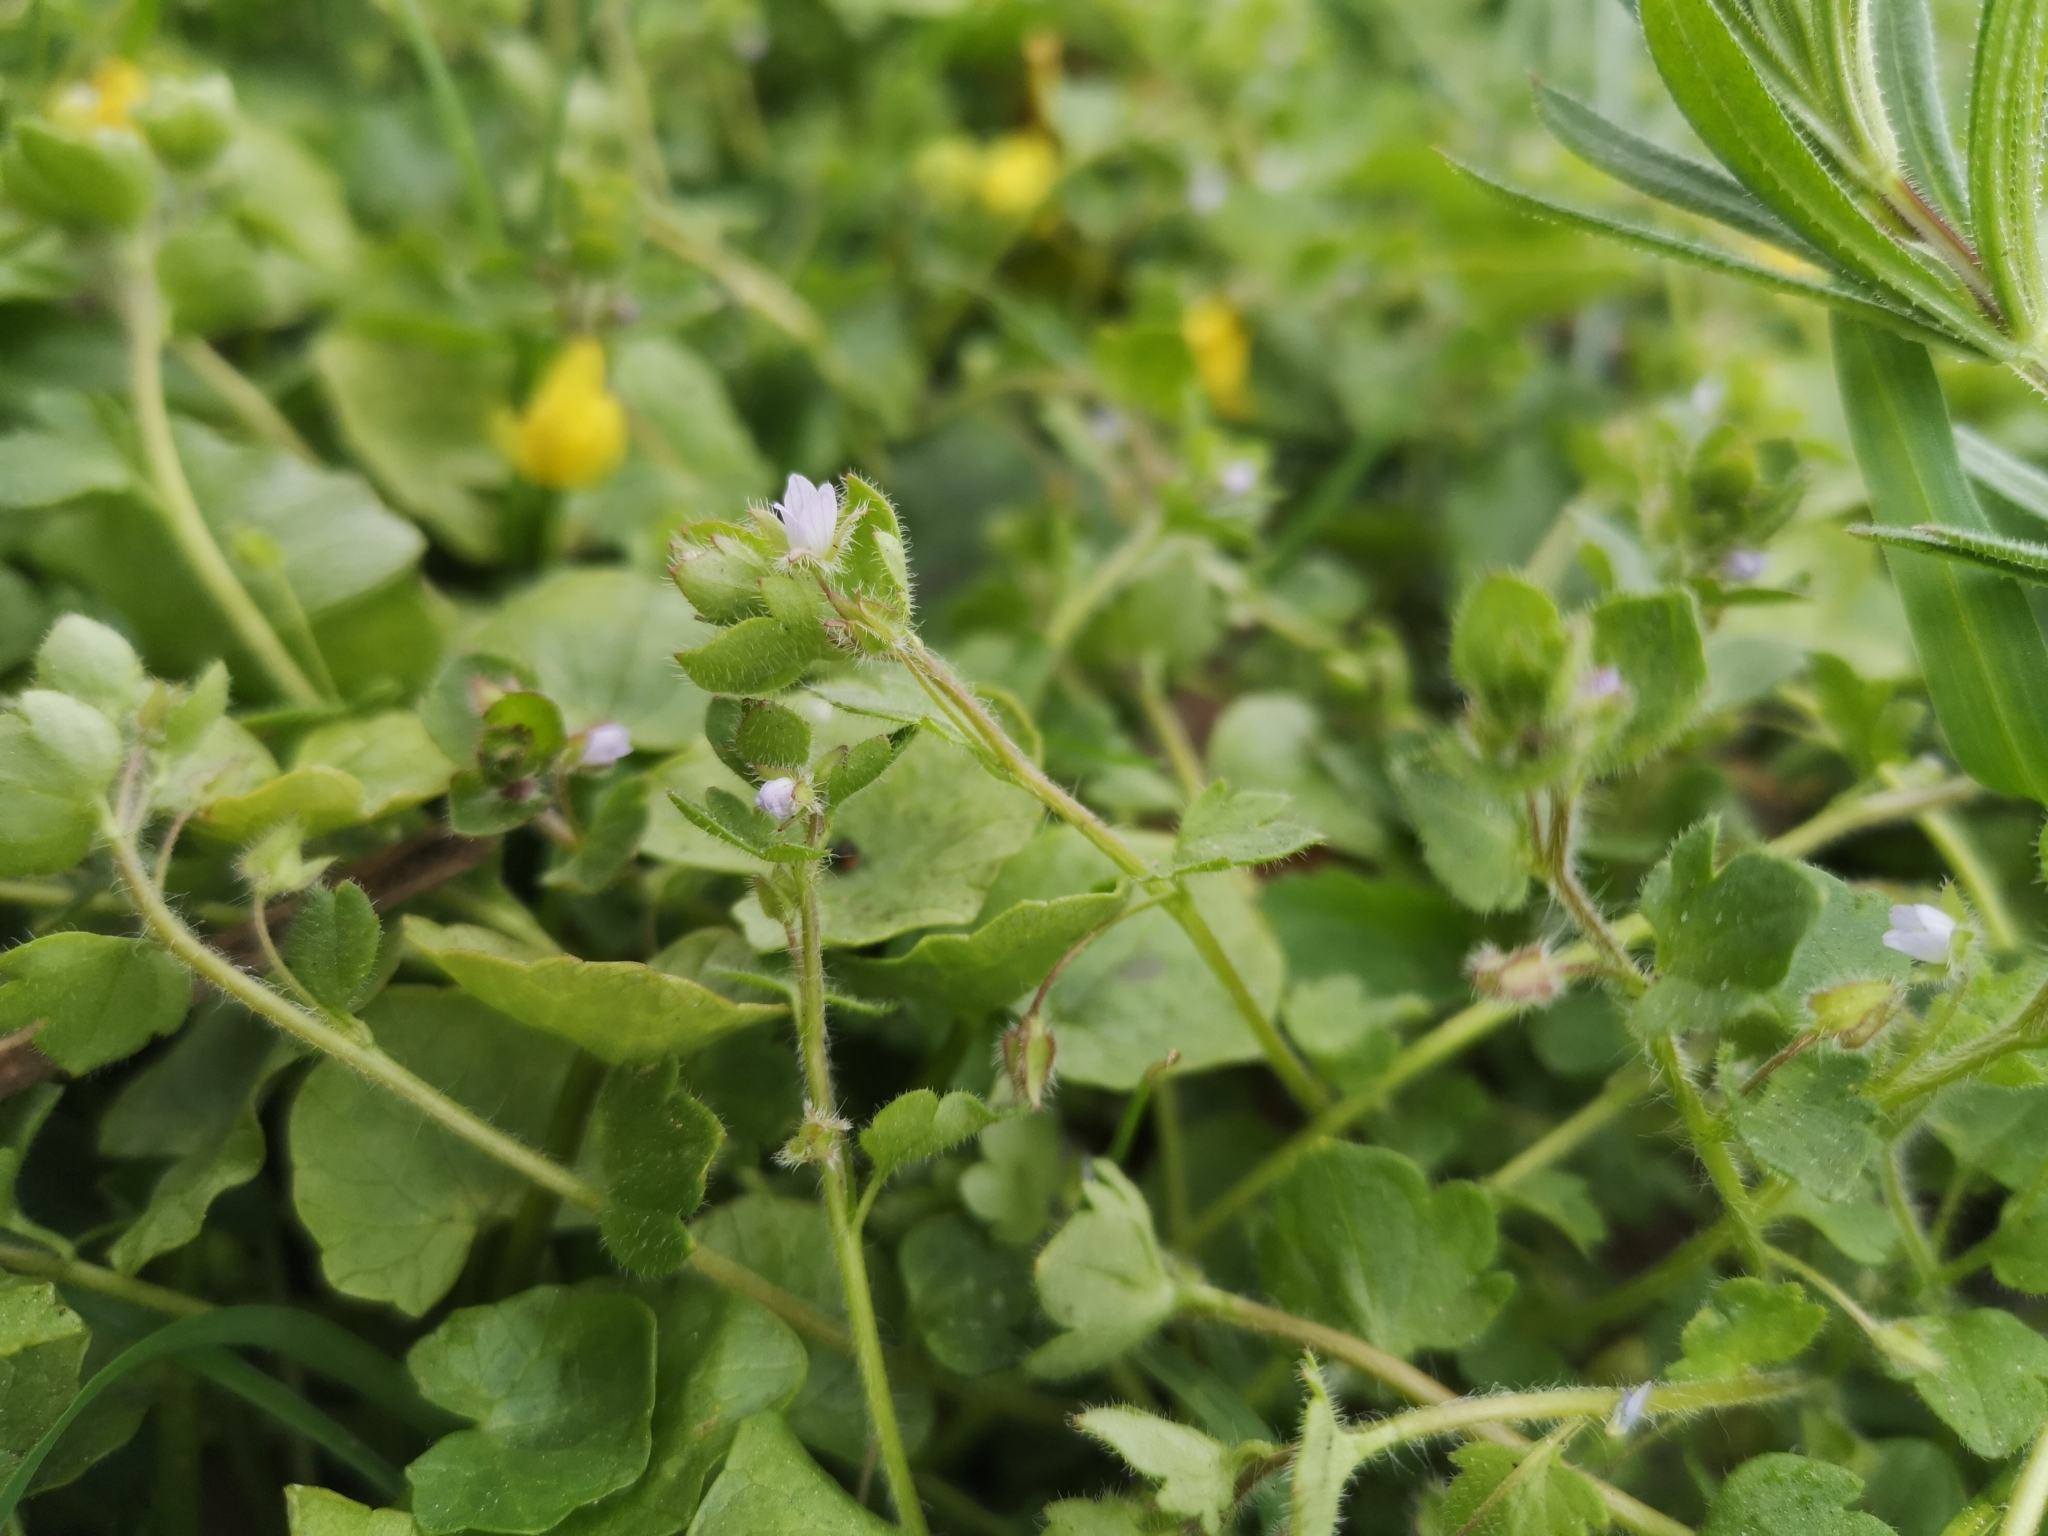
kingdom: Plantae
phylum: Tracheophyta
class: Magnoliopsida
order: Lamiales
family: Plantaginaceae
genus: Veronica
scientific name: Veronica sublobata
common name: False ivy-leaved speedwell
